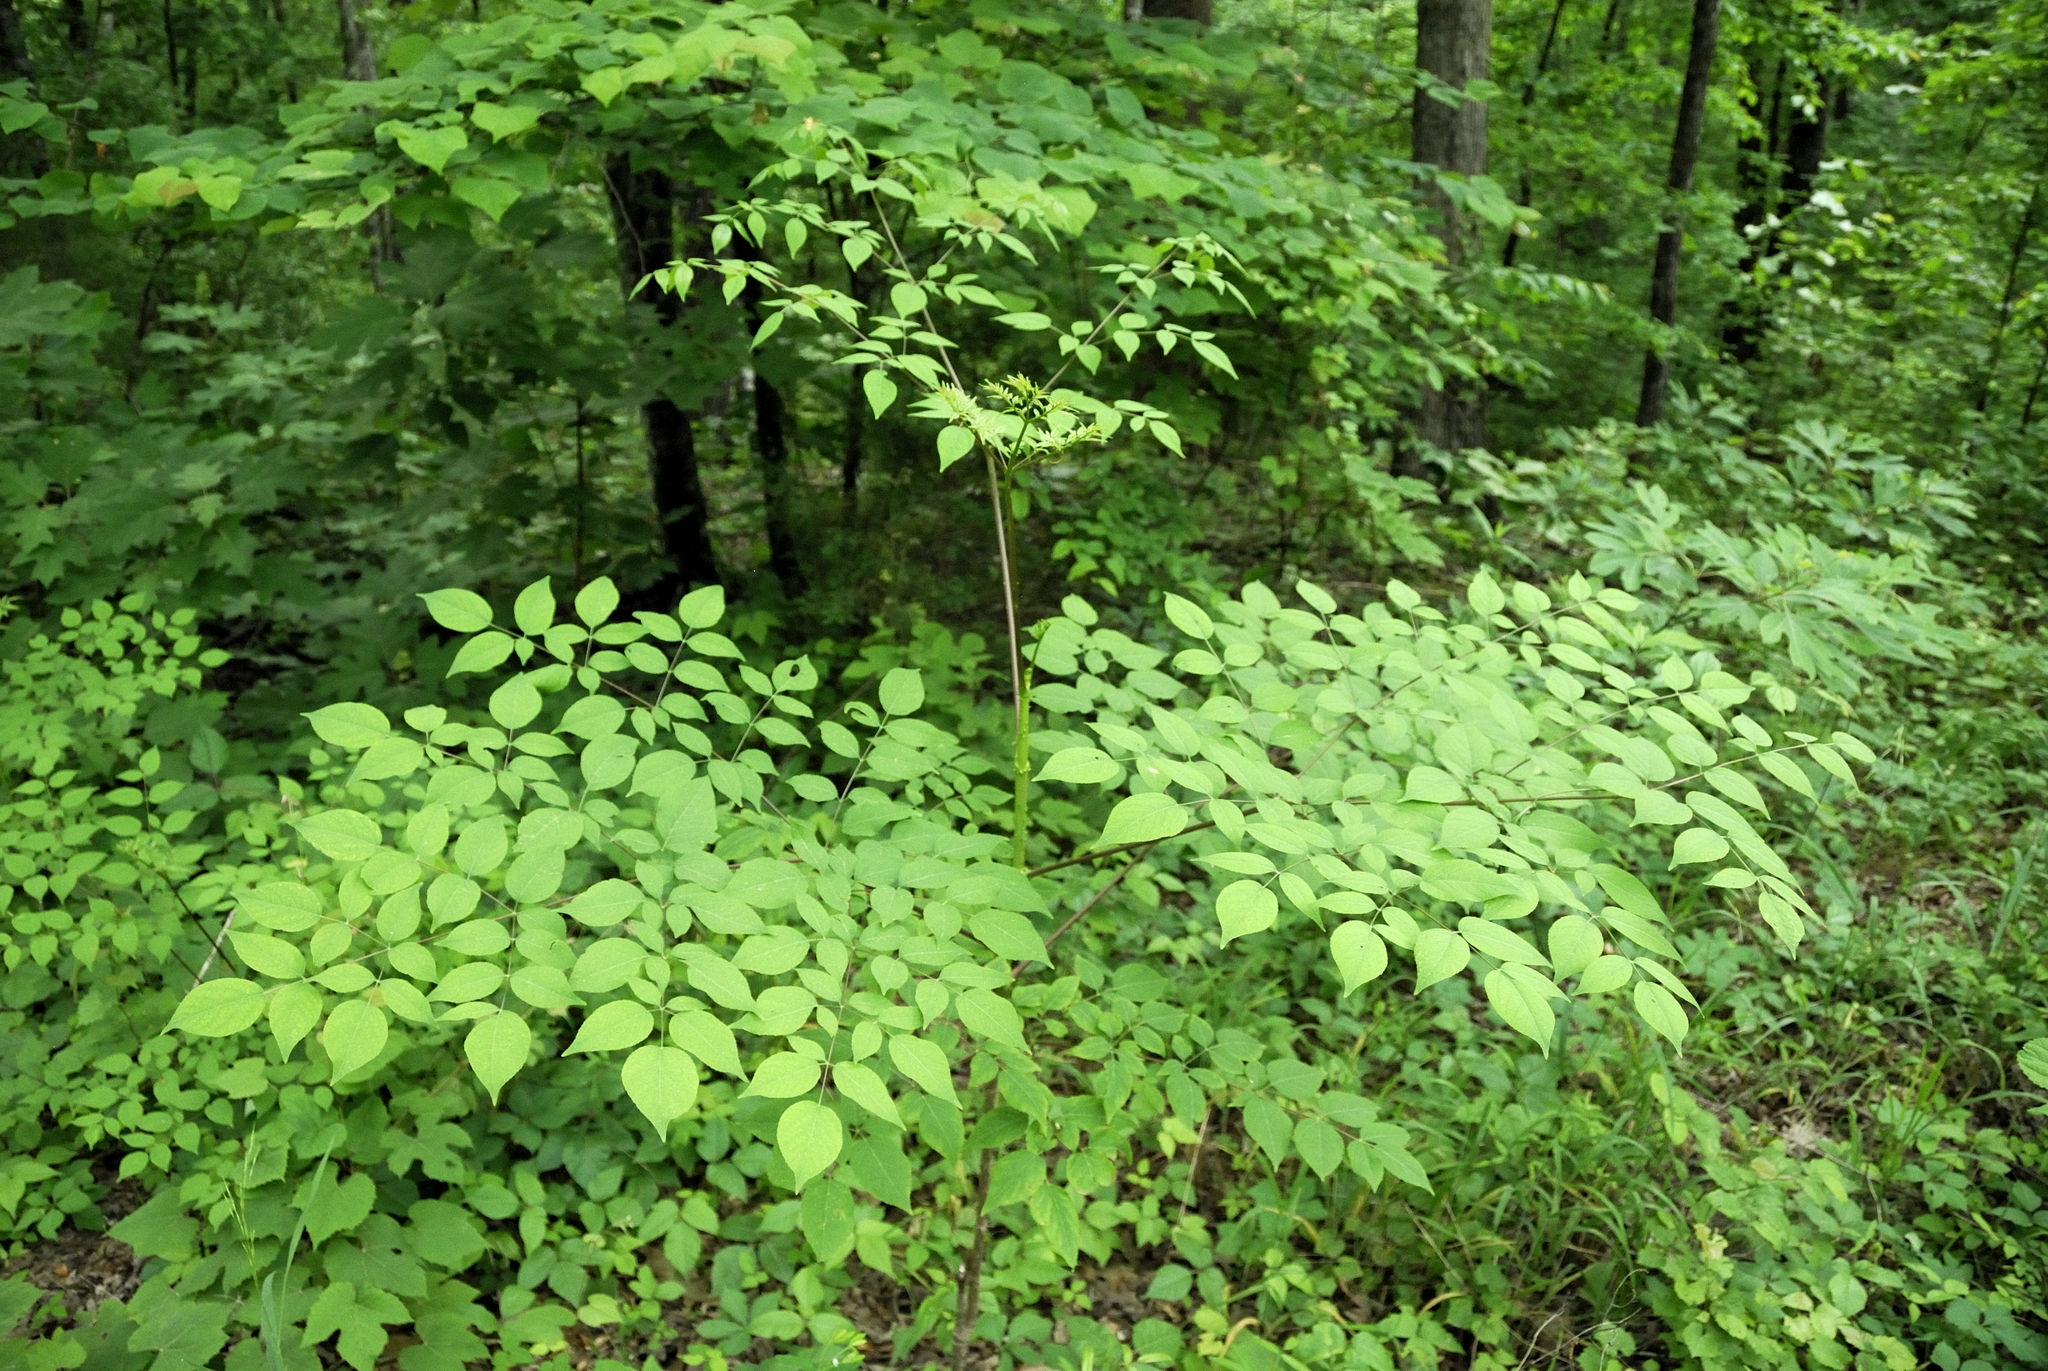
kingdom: Plantae
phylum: Tracheophyta
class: Magnoliopsida
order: Apiales
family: Araliaceae
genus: Aralia
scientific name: Aralia spinosa
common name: Hercules'-club
